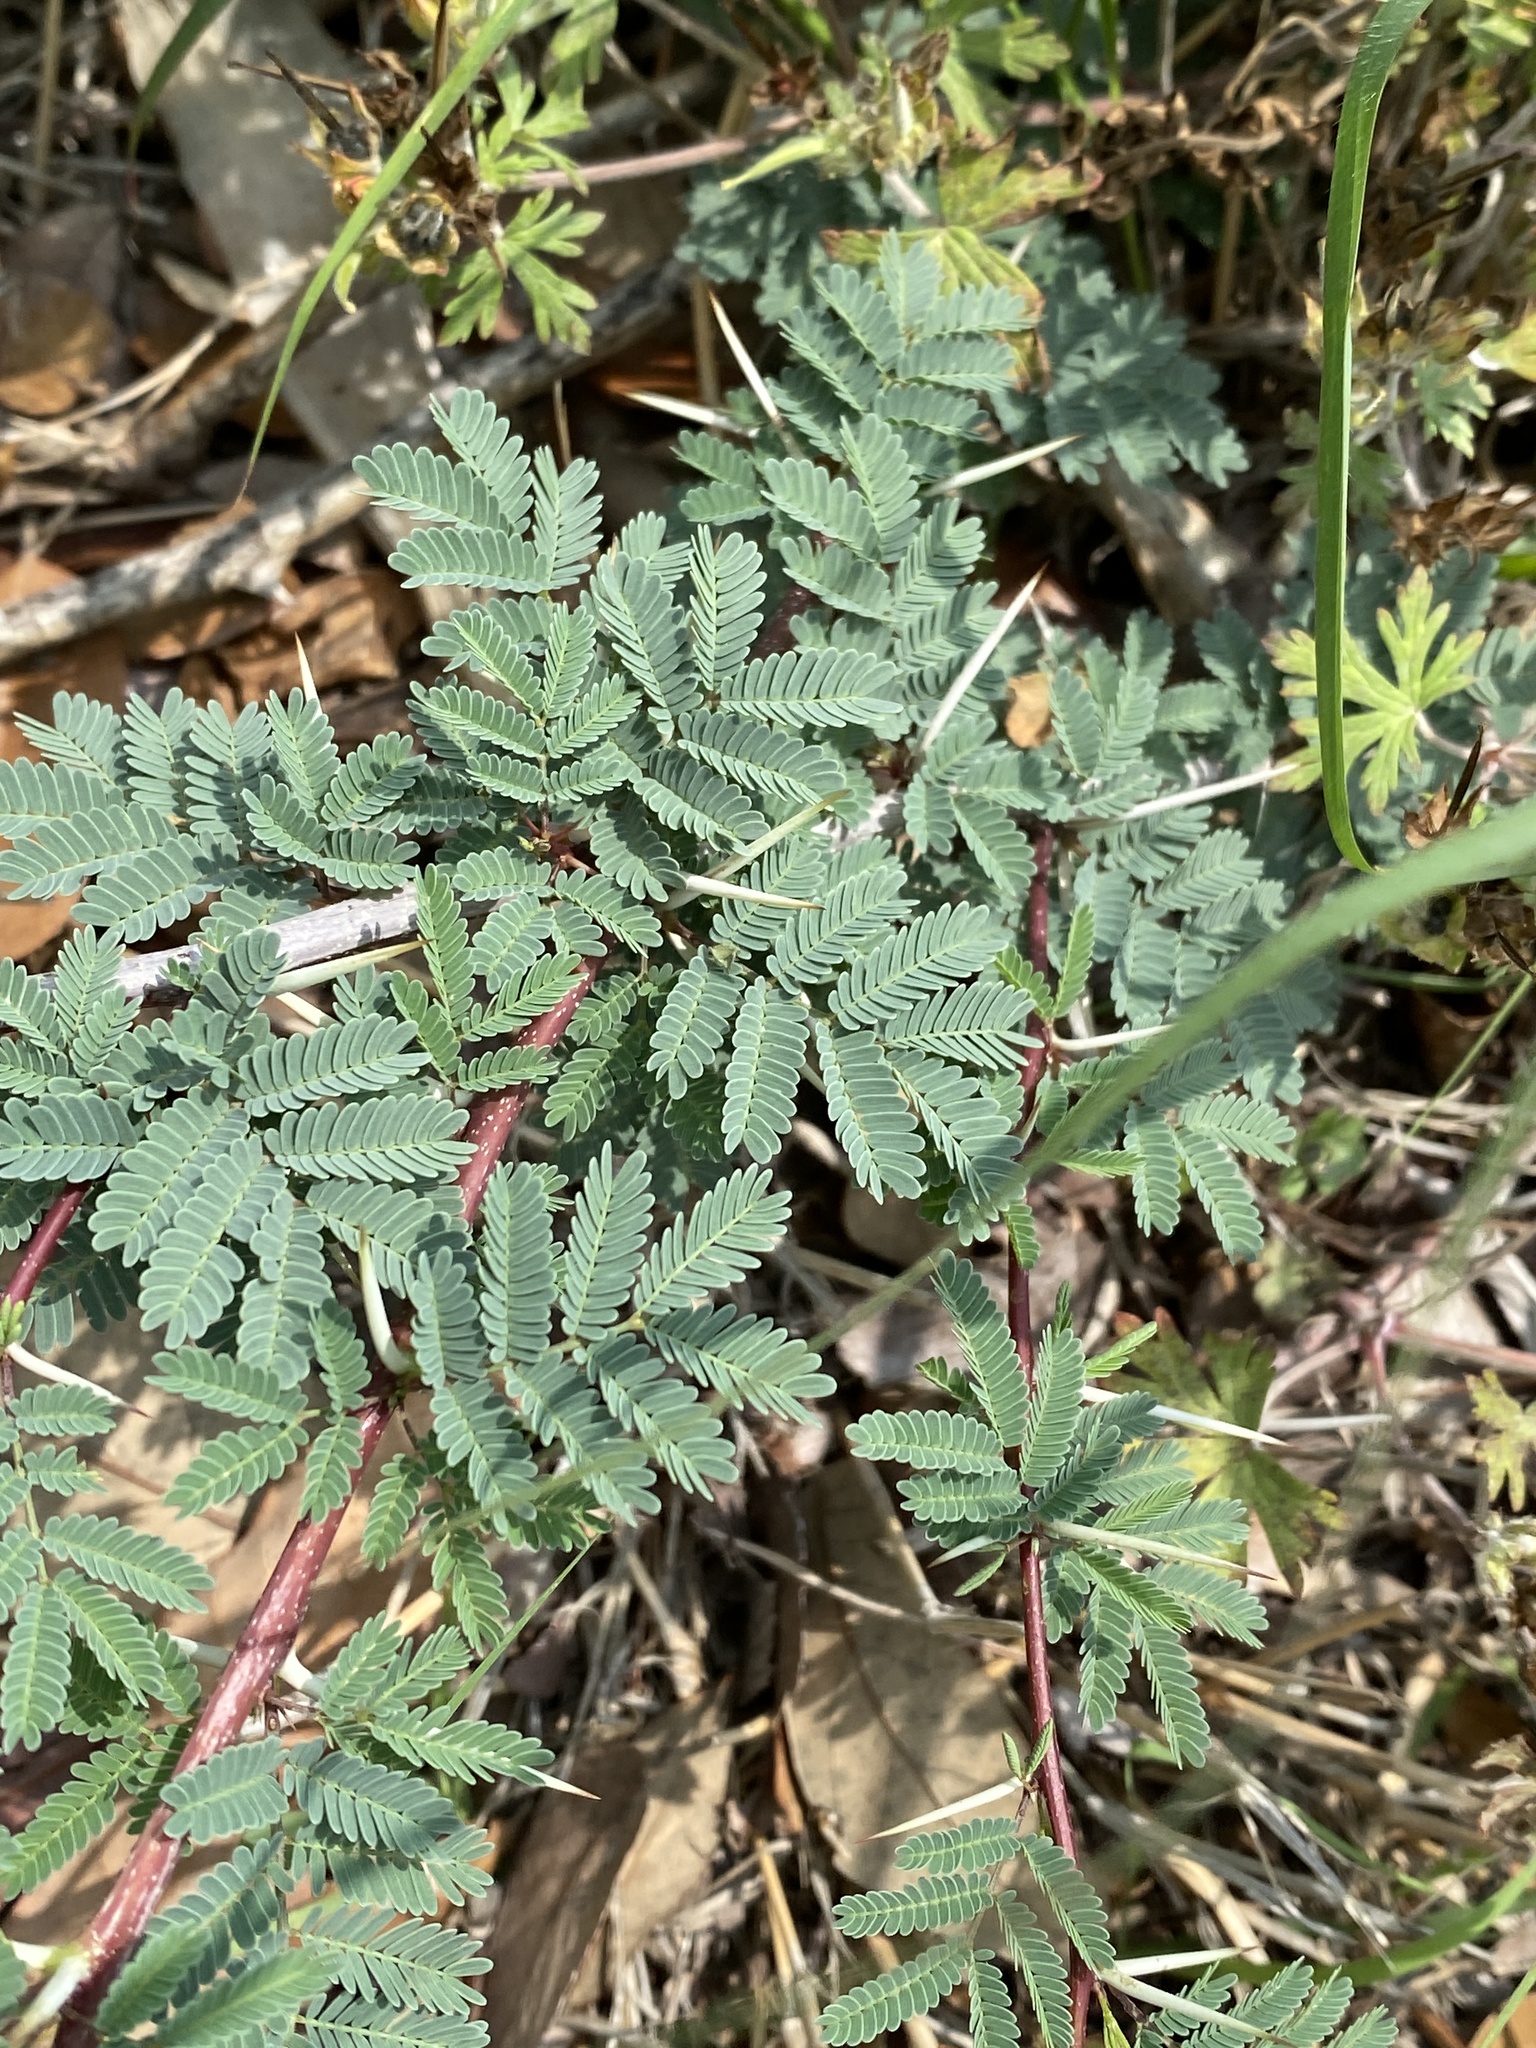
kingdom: Plantae
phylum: Tracheophyta
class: Magnoliopsida
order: Fabales
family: Fabaceae
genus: Vachellia
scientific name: Vachellia farnesiana
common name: Sweet acacia
